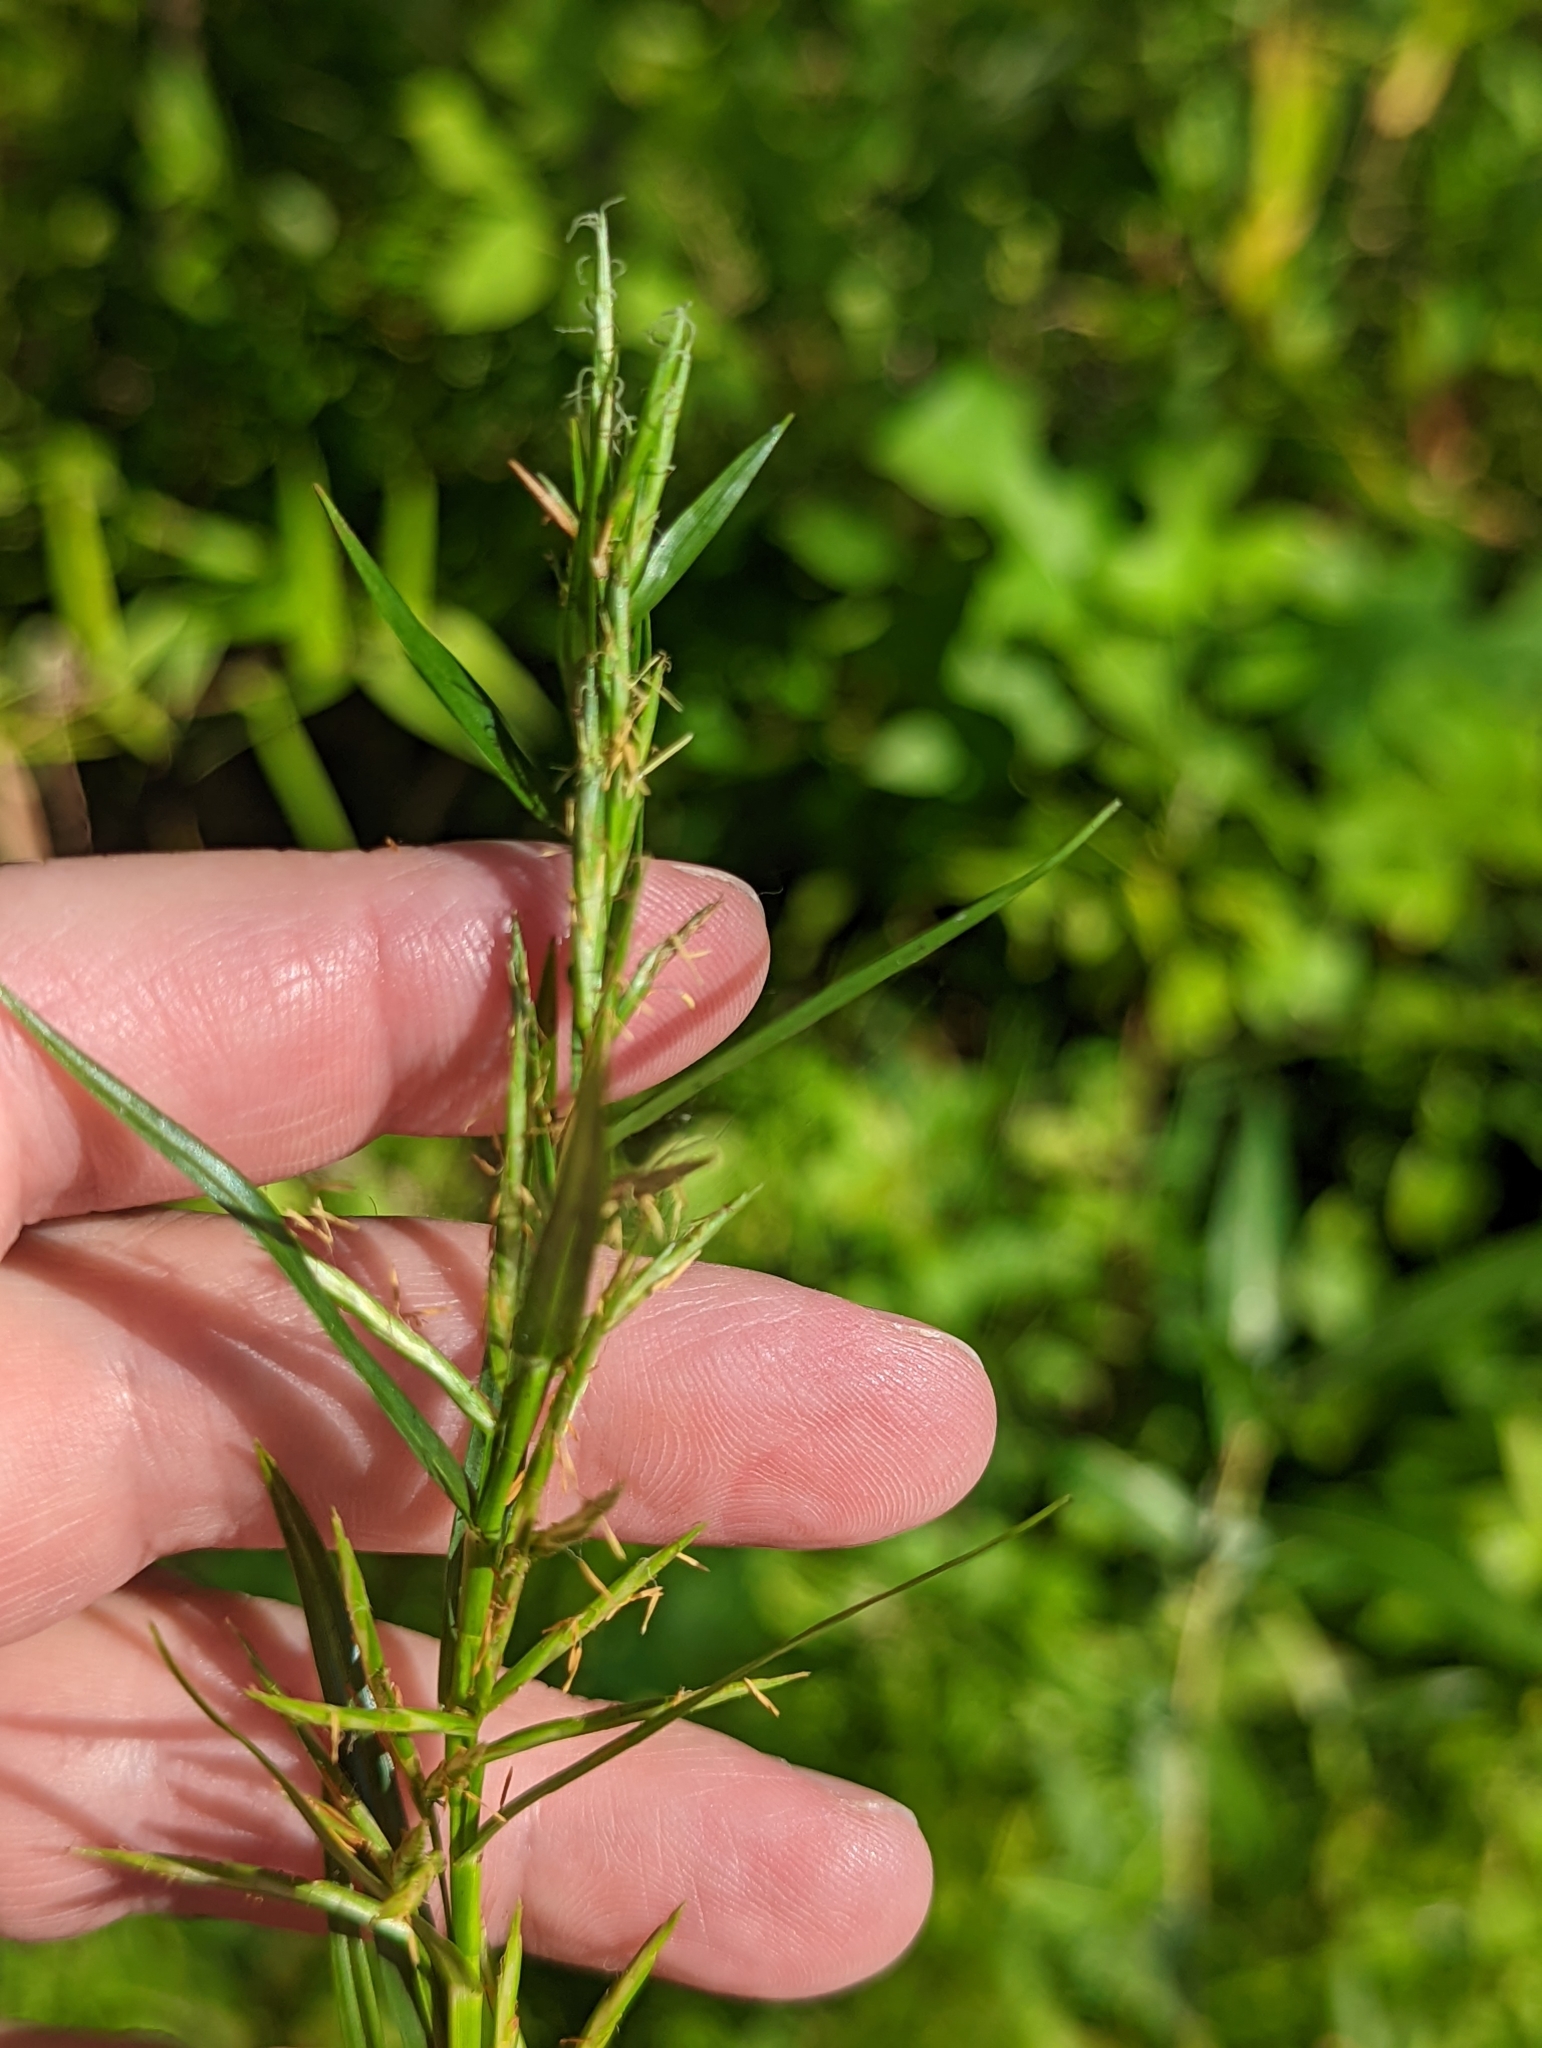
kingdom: Plantae
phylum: Tracheophyta
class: Liliopsida
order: Poales
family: Cyperaceae
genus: Dulichium
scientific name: Dulichium arundinaceum
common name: Three-way sedge
